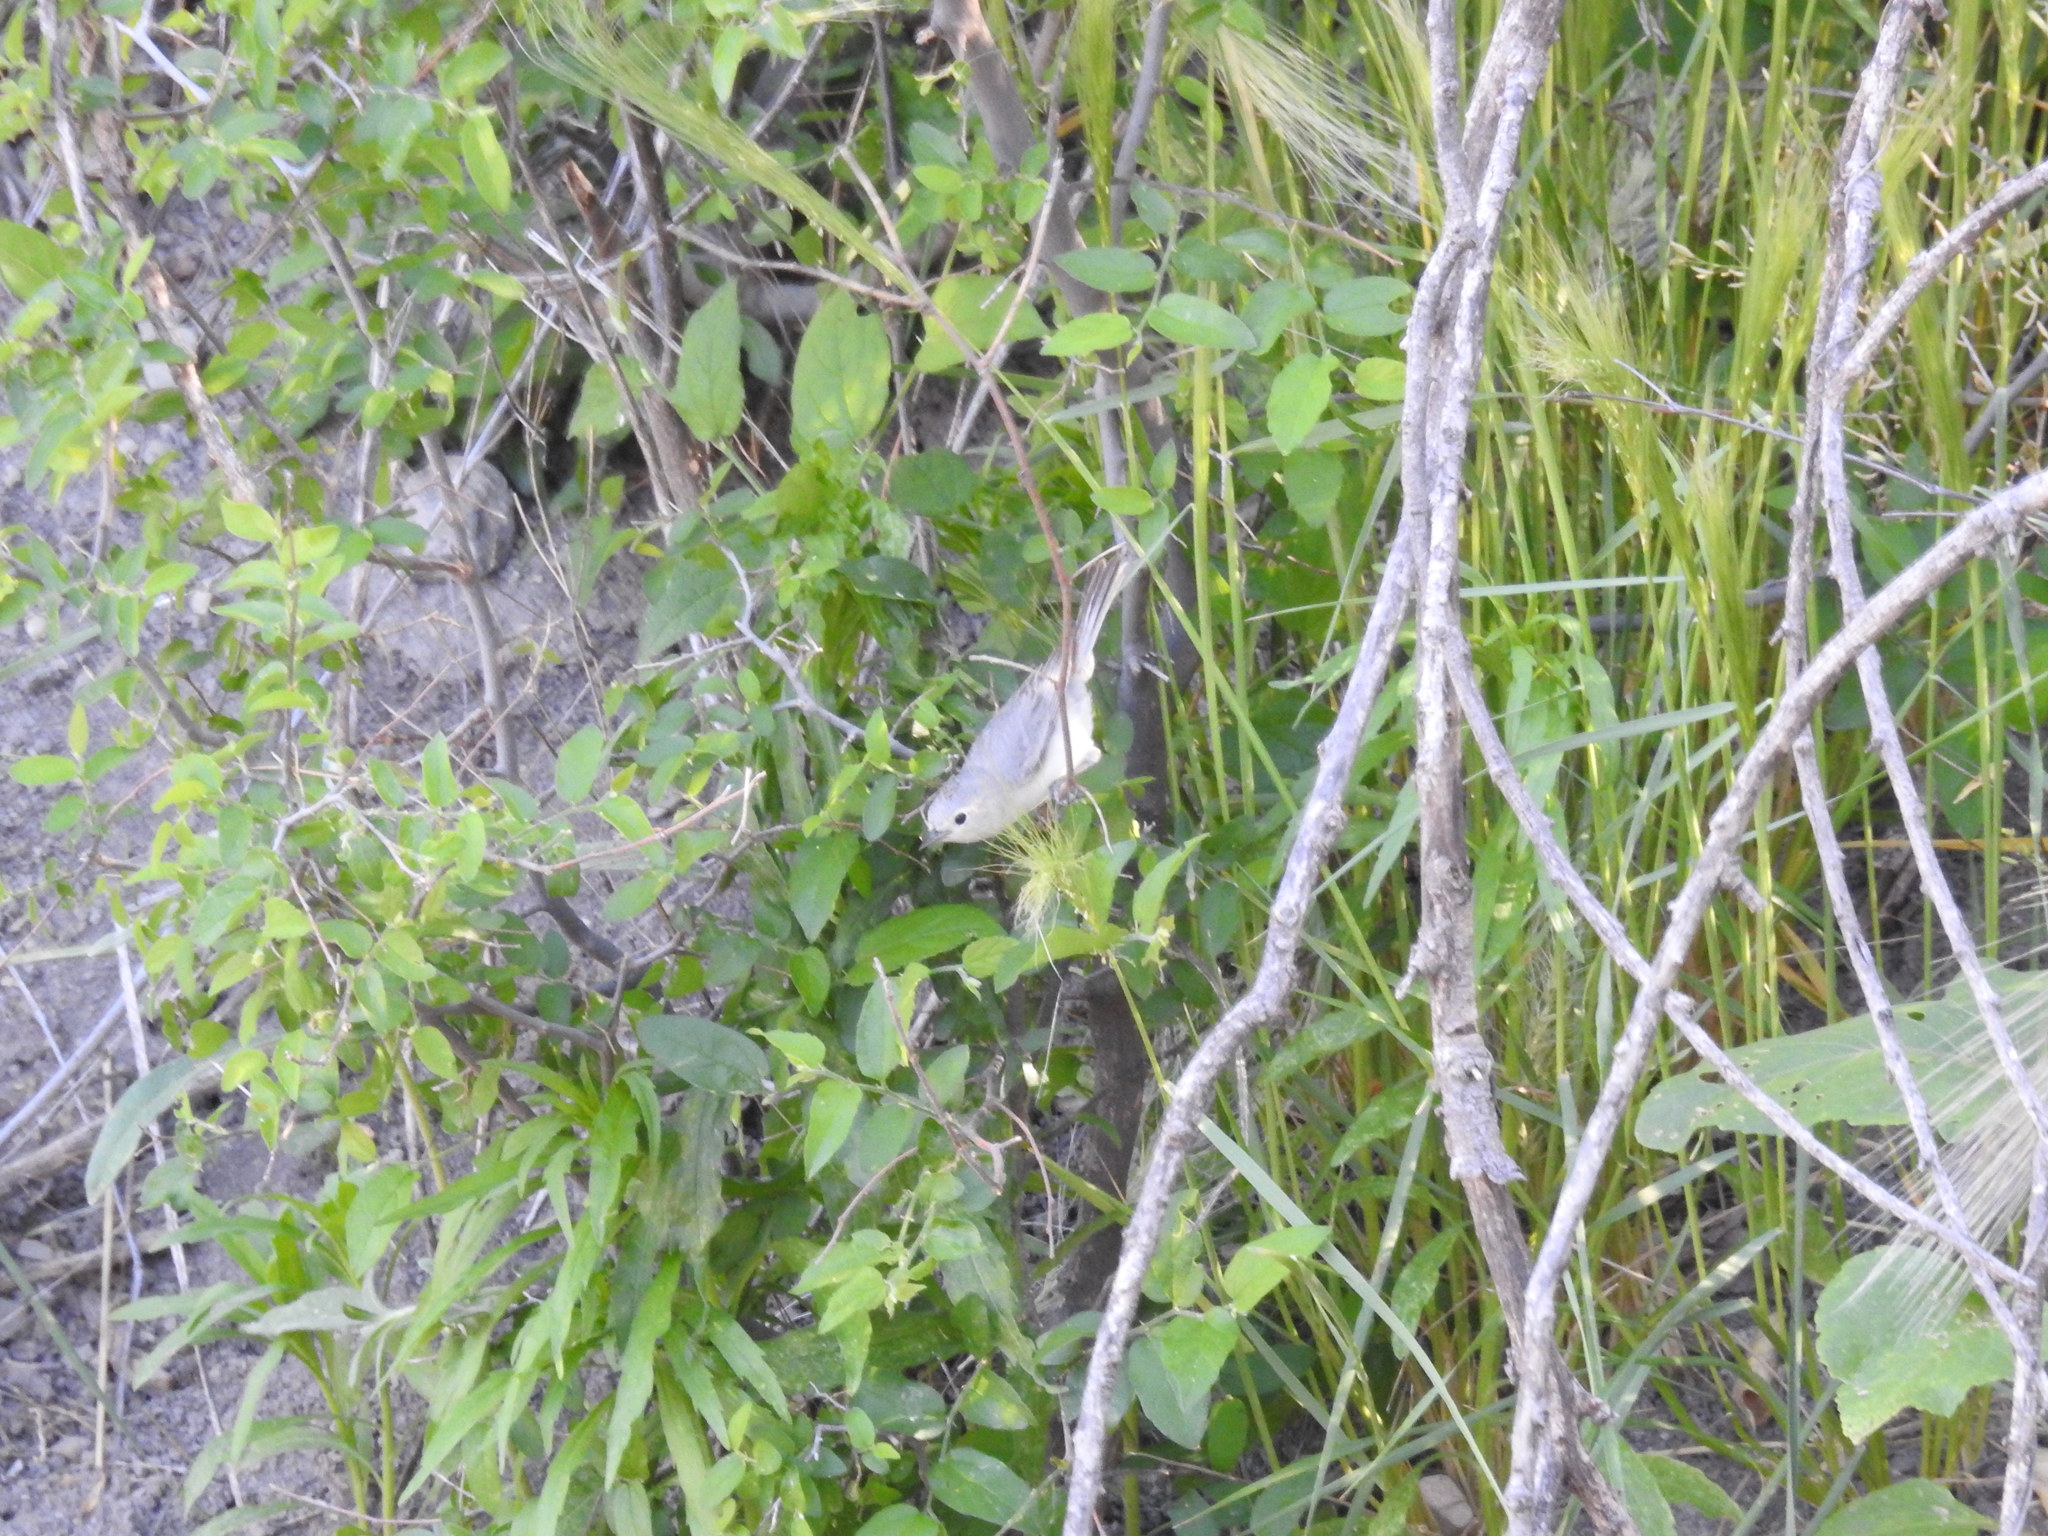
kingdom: Animalia
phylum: Chordata
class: Aves
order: Passeriformes
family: Parulidae
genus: Leiothlypis
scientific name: Leiothlypis luciae
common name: Lucy's warbler
